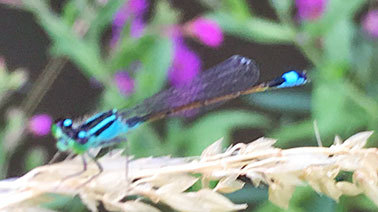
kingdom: Animalia
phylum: Arthropoda
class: Insecta
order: Odonata
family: Coenagrionidae
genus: Ischnura
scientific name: Ischnura elegans
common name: Blue-tailed damselfly
